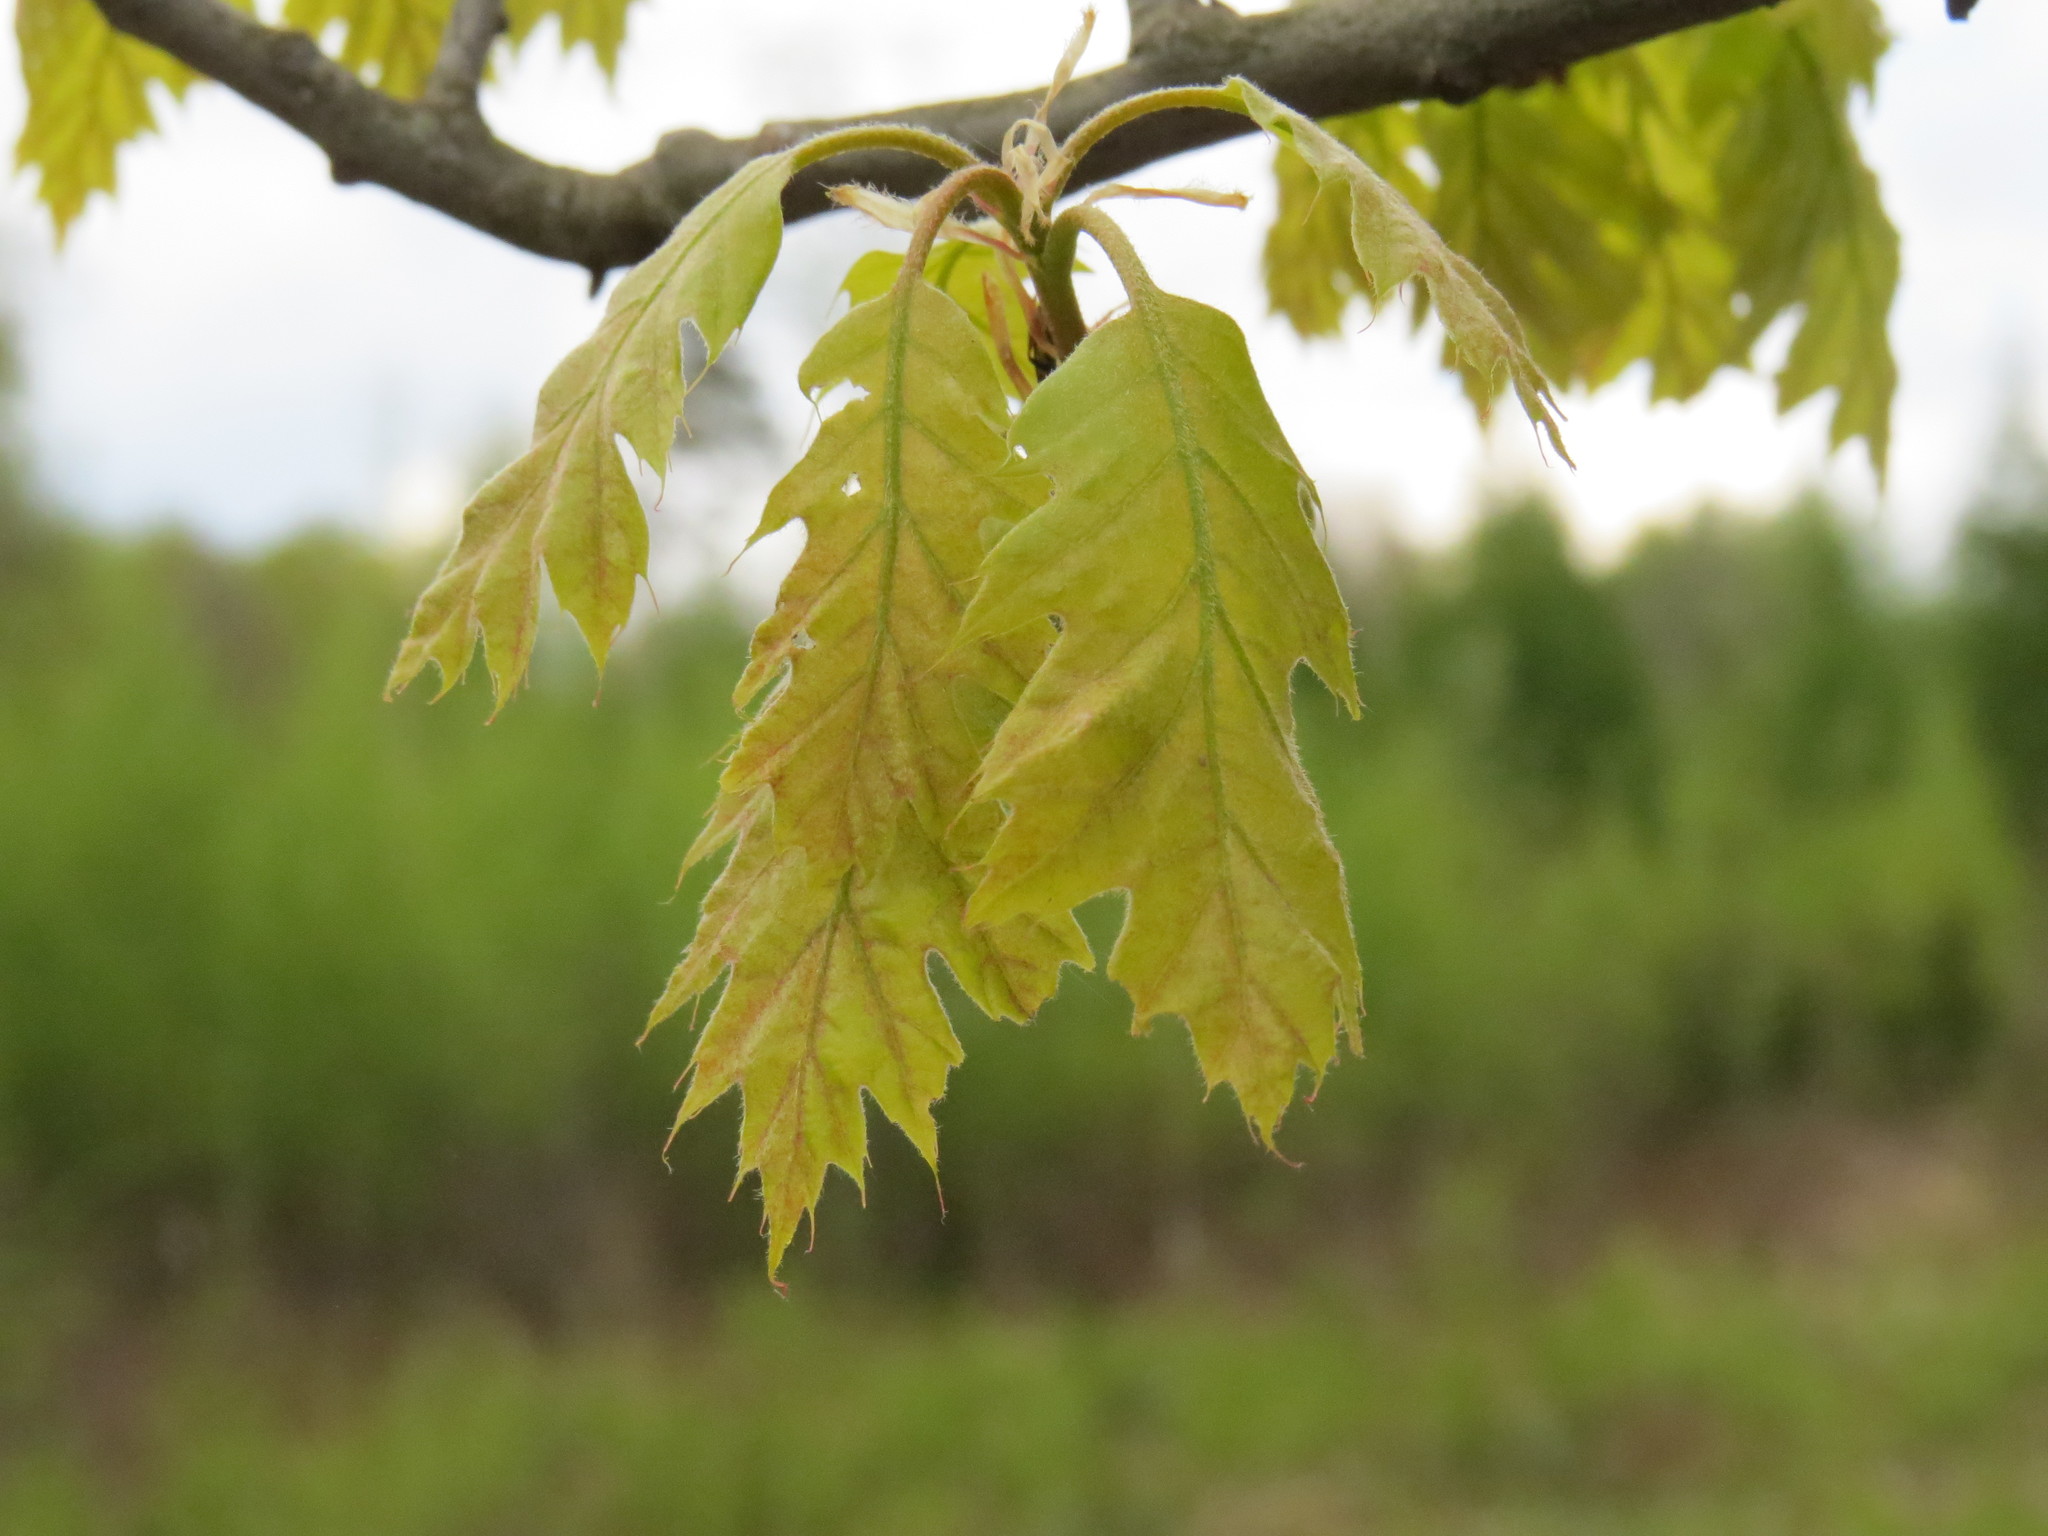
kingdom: Plantae
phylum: Tracheophyta
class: Magnoliopsida
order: Fagales
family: Fagaceae
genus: Quercus
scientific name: Quercus rubra
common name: Red oak
